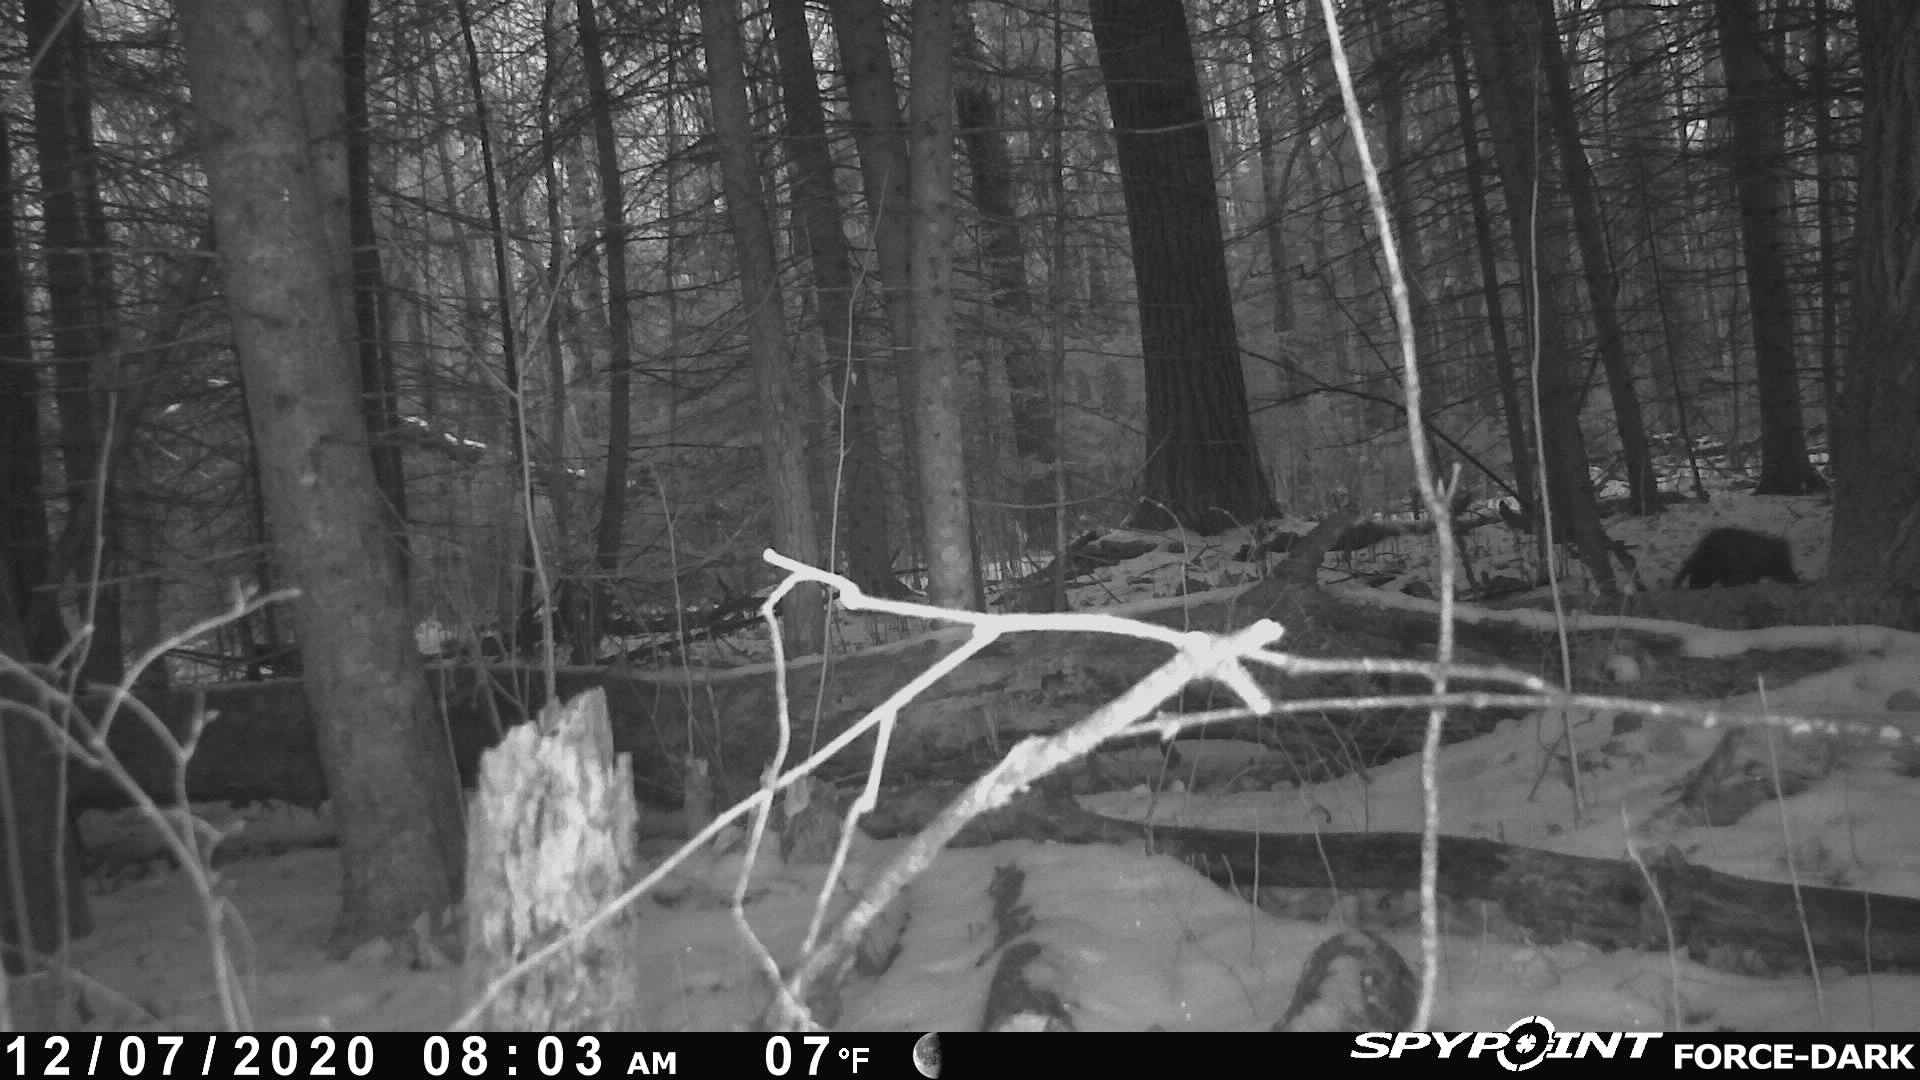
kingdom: Animalia
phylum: Chordata
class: Mammalia
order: Carnivora
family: Mustelidae
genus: Martes
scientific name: Martes americana
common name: American marten
